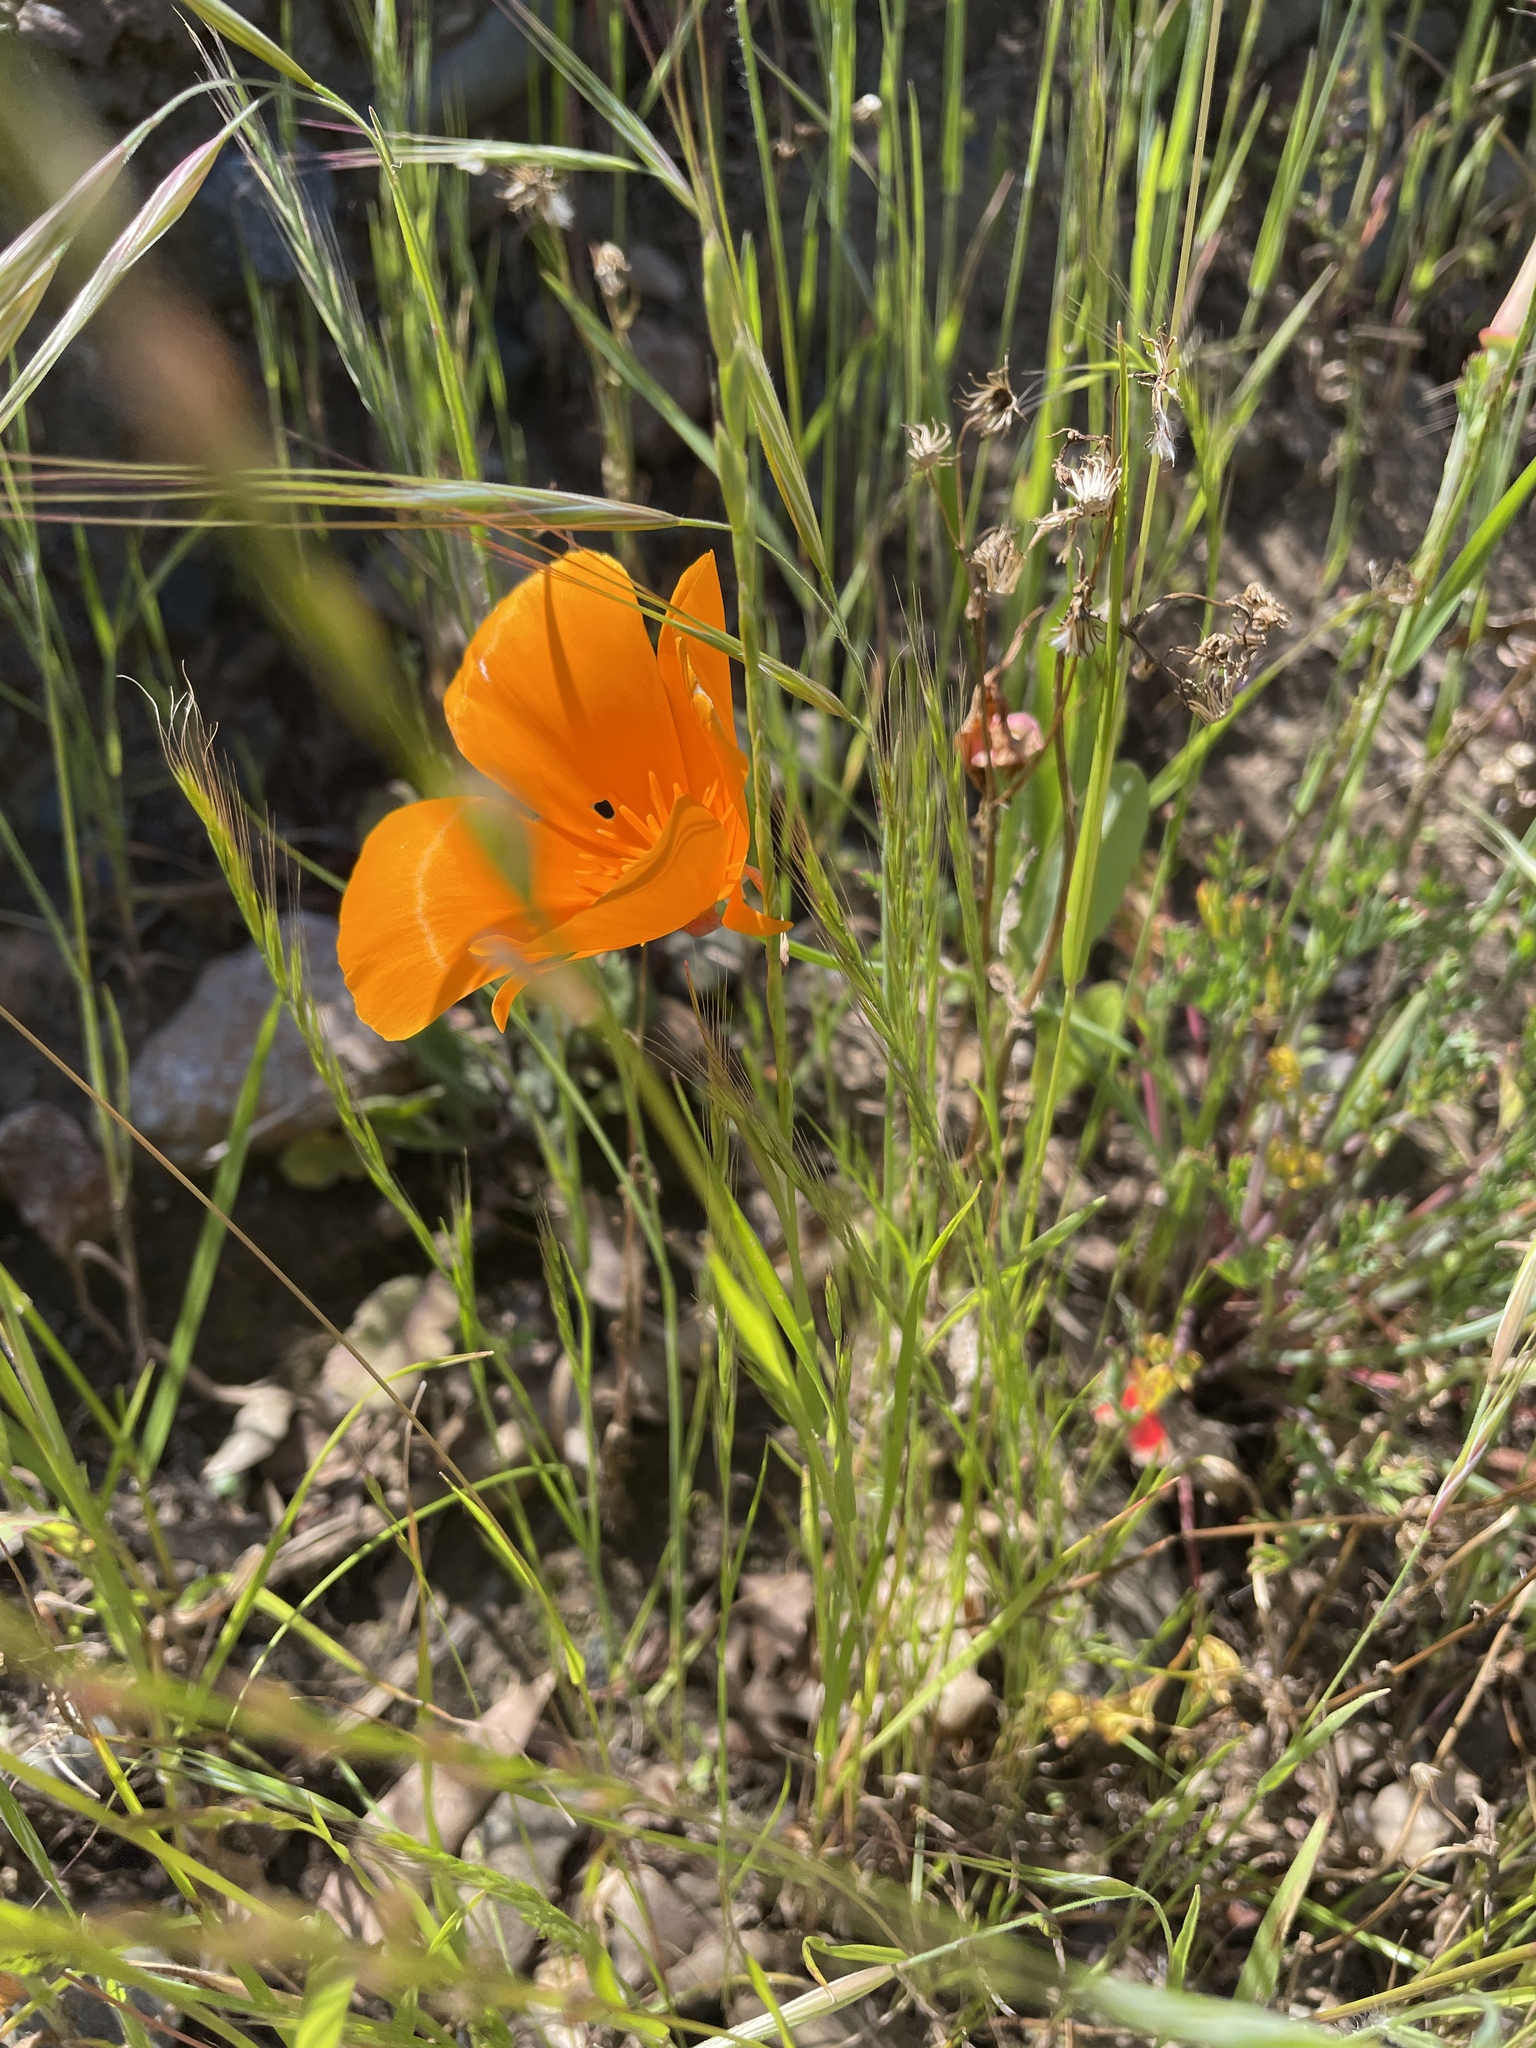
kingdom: Plantae
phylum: Tracheophyta
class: Magnoliopsida
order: Ranunculales
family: Papaveraceae
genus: Eschscholzia
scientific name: Eschscholzia californica
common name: California poppy
